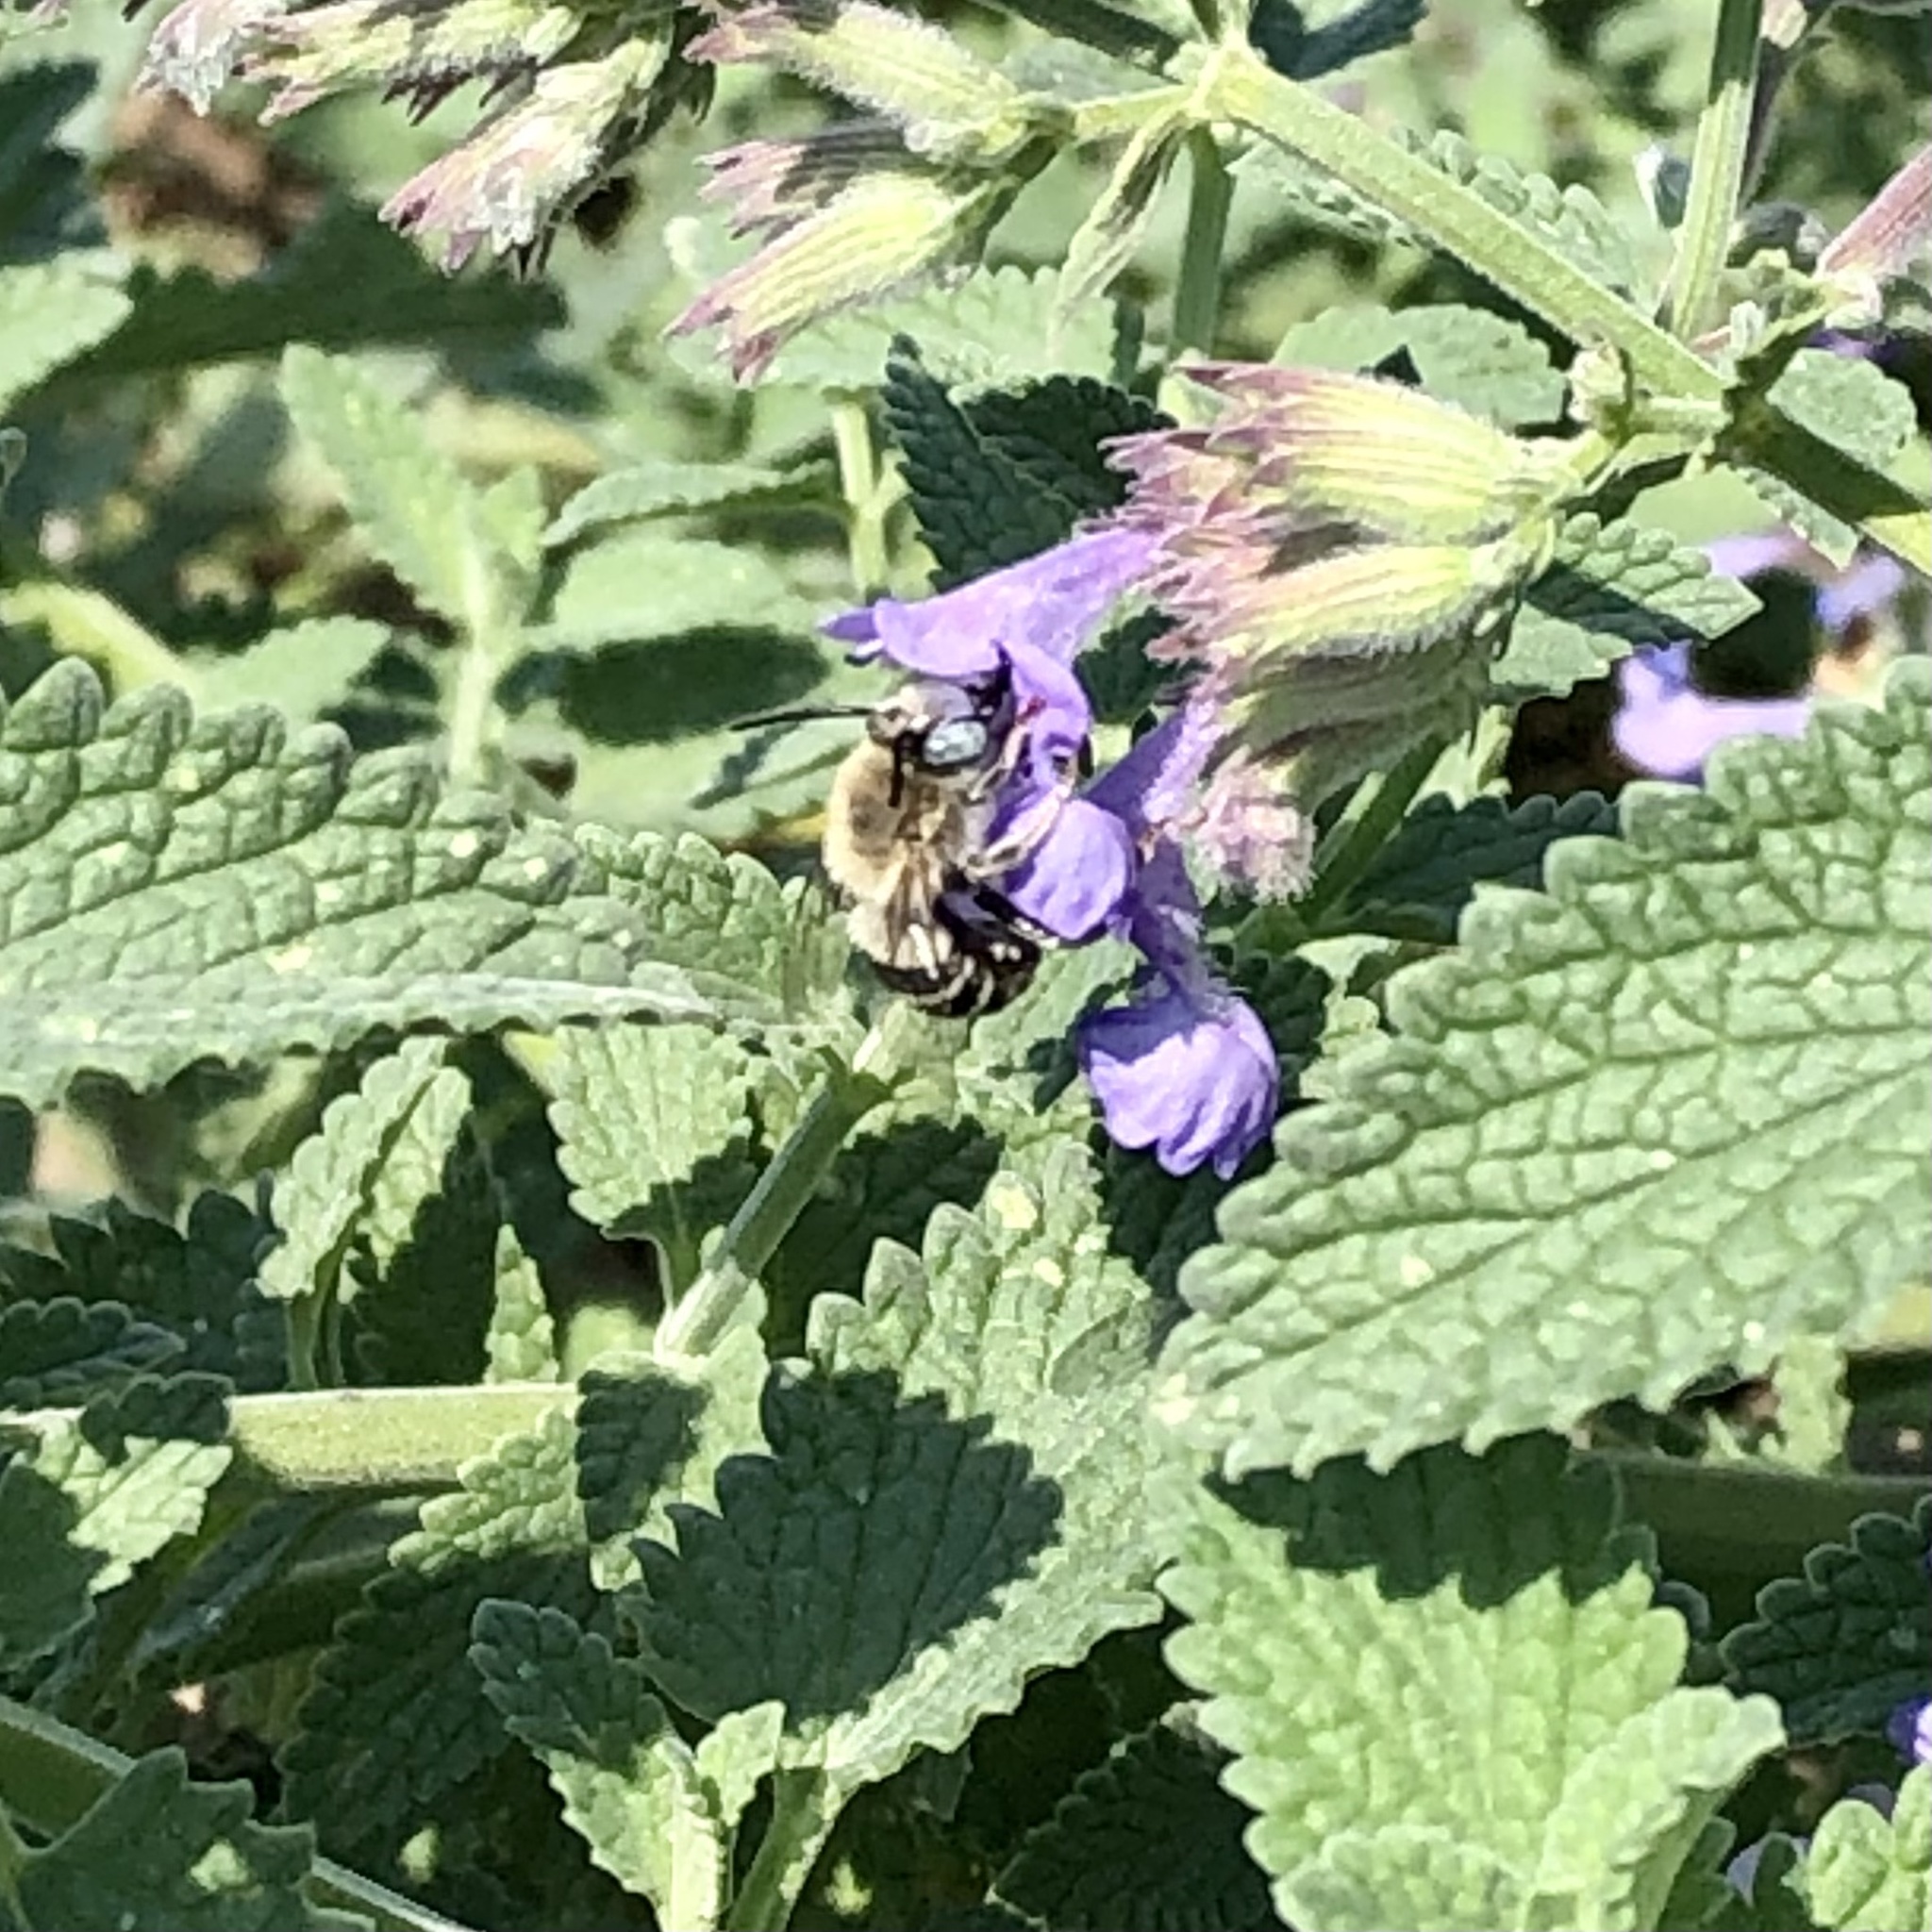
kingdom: Animalia
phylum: Arthropoda
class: Insecta
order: Hymenoptera
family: Apidae
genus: Anthophora
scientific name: Anthophora urbana
